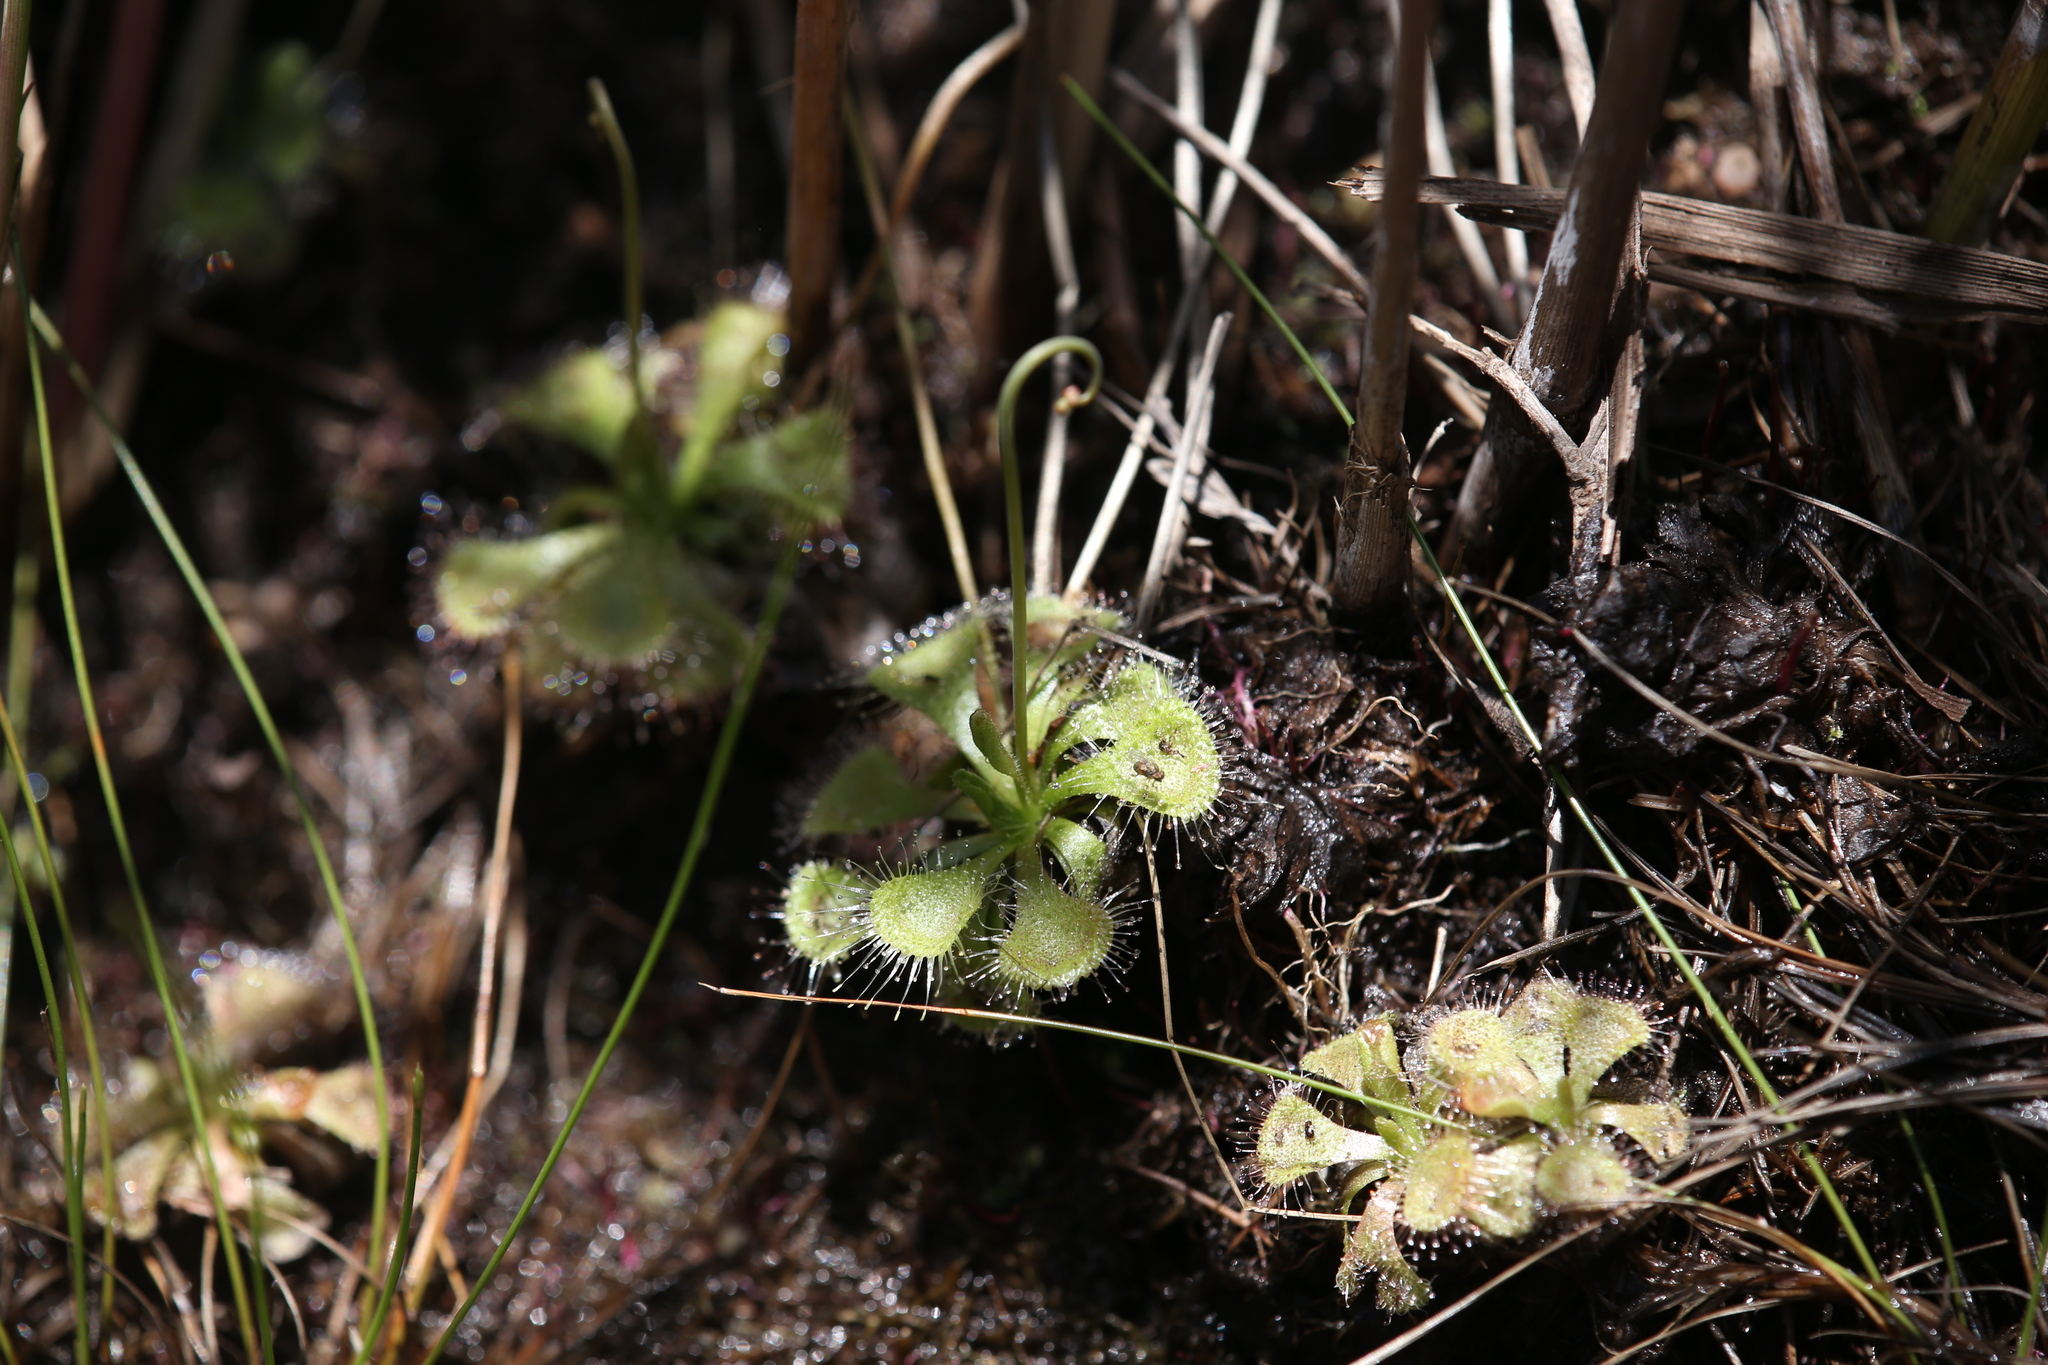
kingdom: Plantae
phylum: Tracheophyta
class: Magnoliopsida
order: Caryophyllales
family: Droseraceae
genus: Drosera
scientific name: Drosera spatulata
